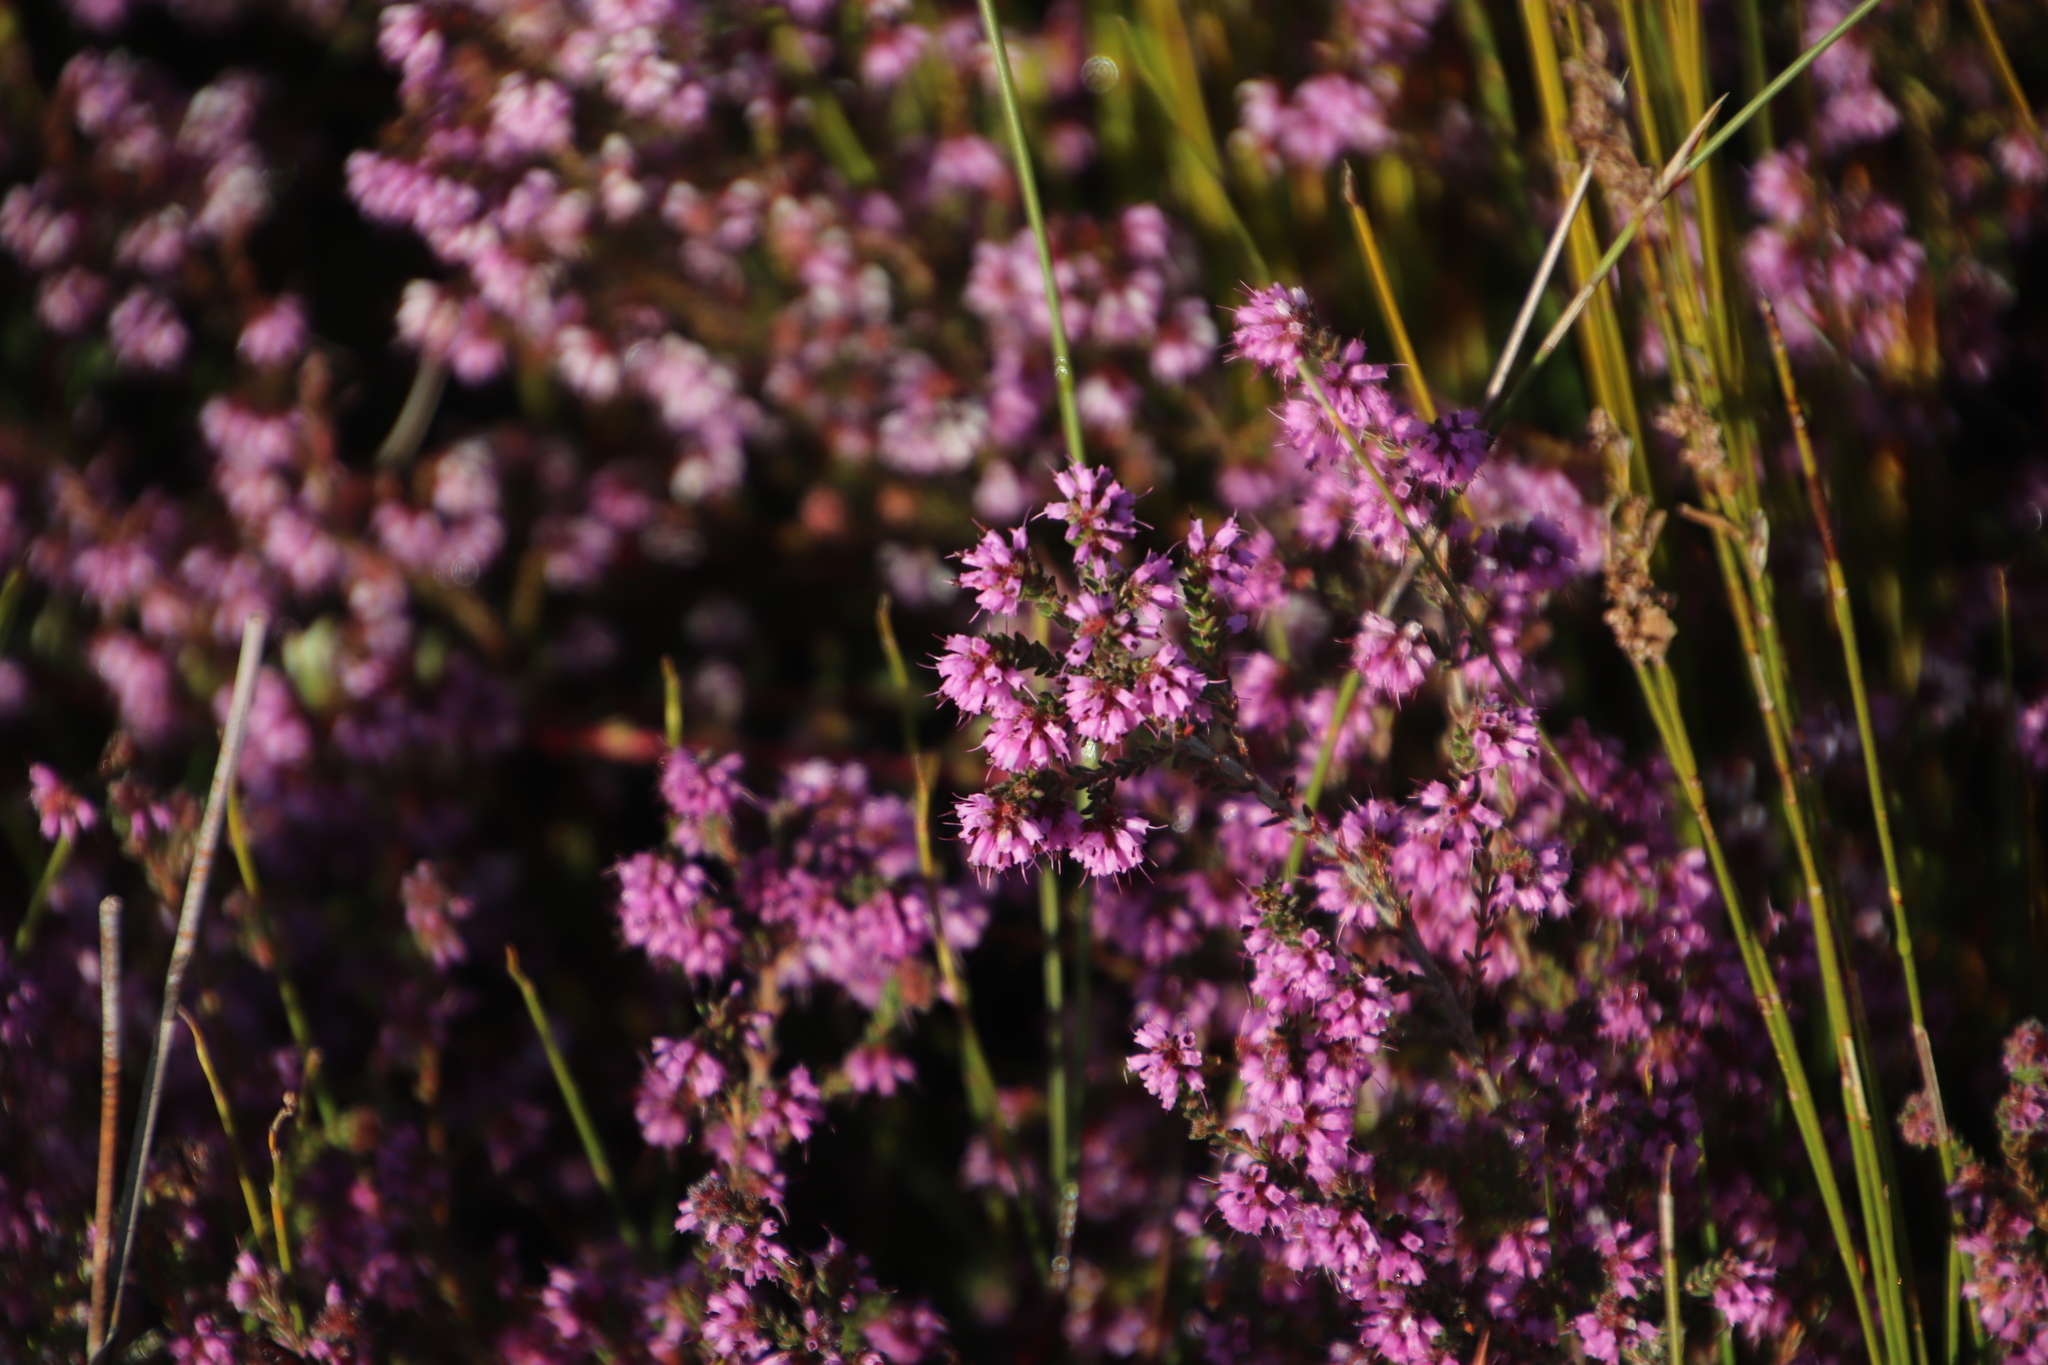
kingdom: Plantae
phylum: Tracheophyta
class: Magnoliopsida
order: Ericales
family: Ericaceae
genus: Erica
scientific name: Erica glabella
